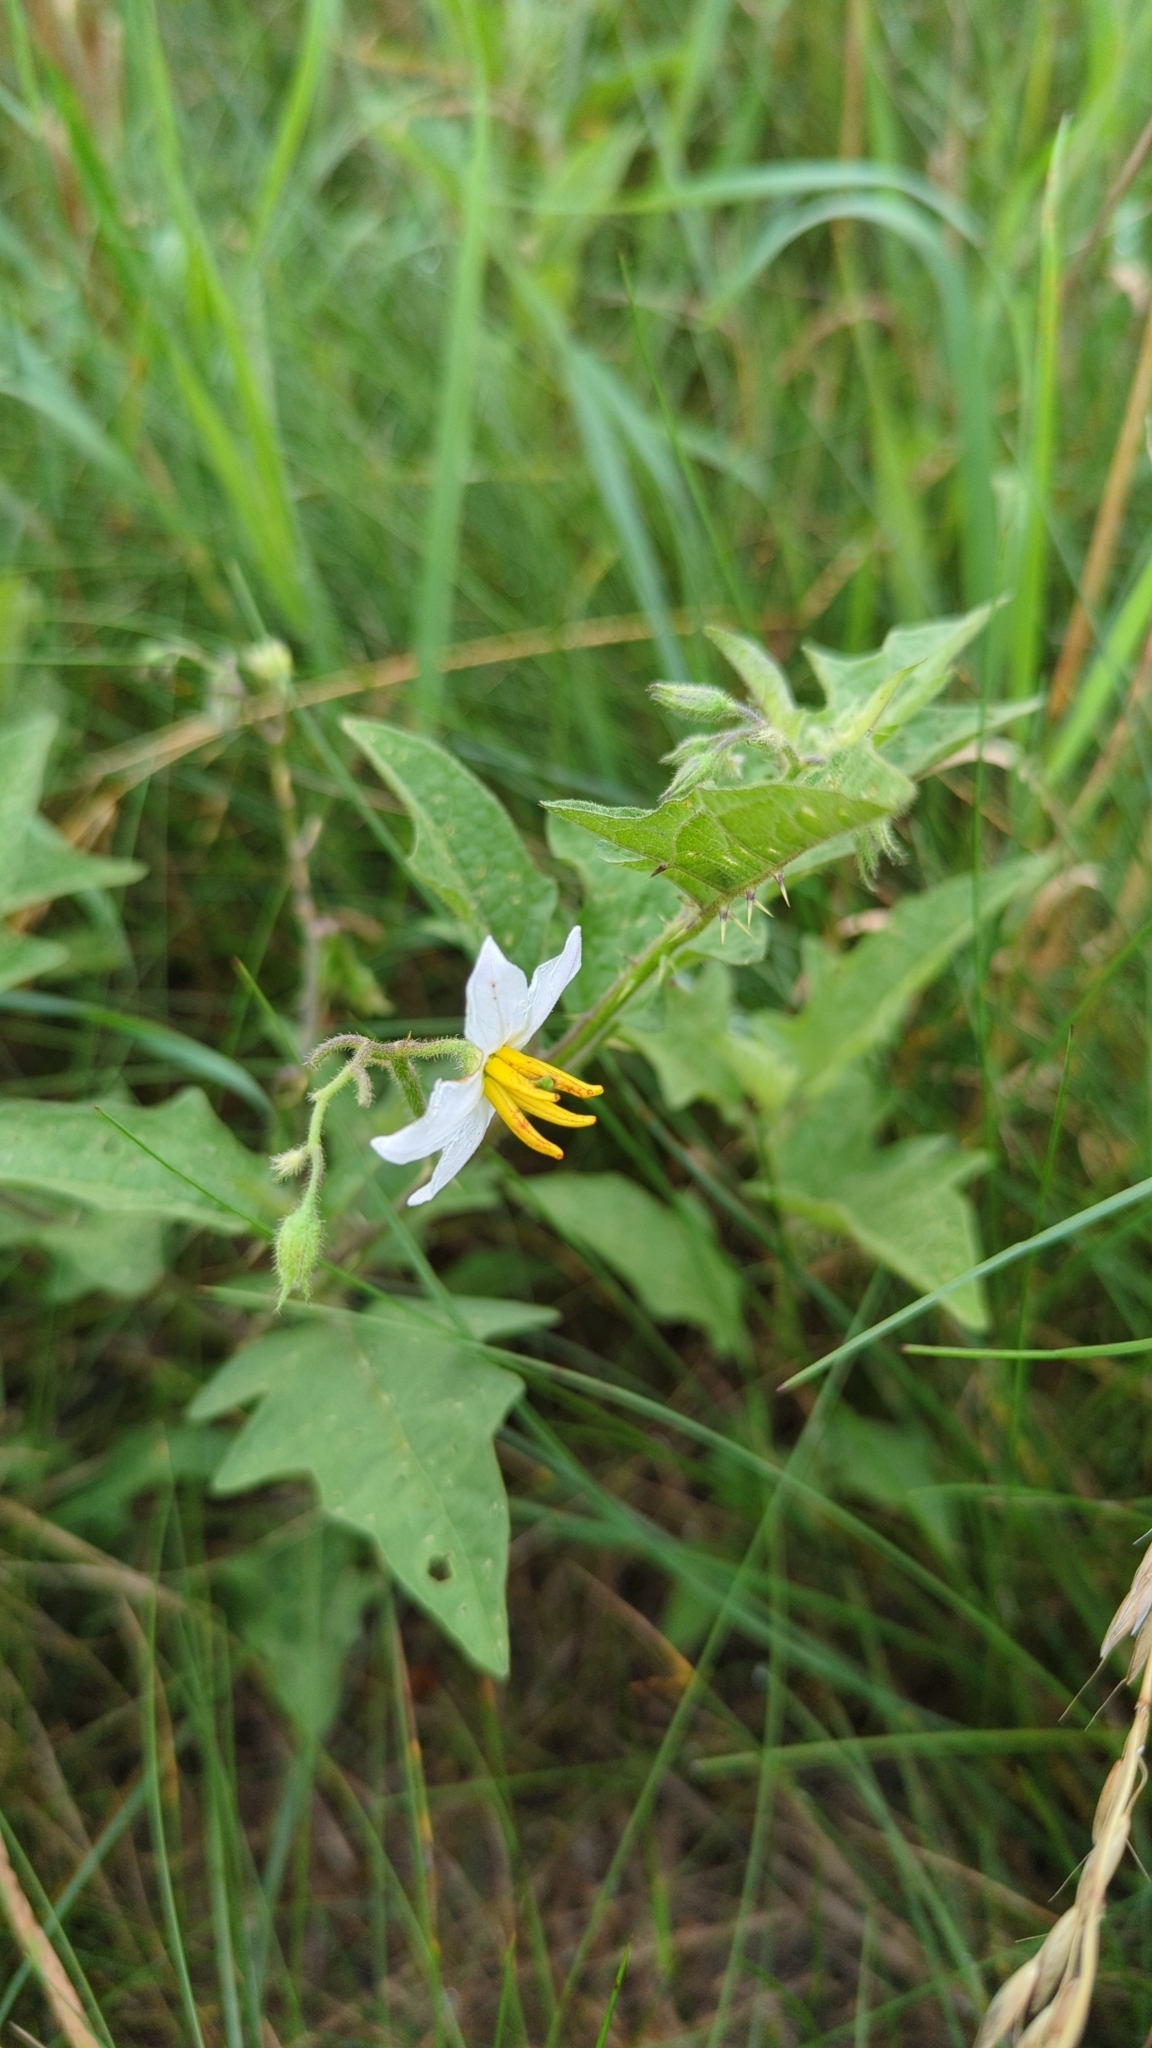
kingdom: Plantae
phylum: Tracheophyta
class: Magnoliopsida
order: Solanales
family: Solanaceae
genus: Solanum
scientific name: Solanum carolinense
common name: Horse-nettle
